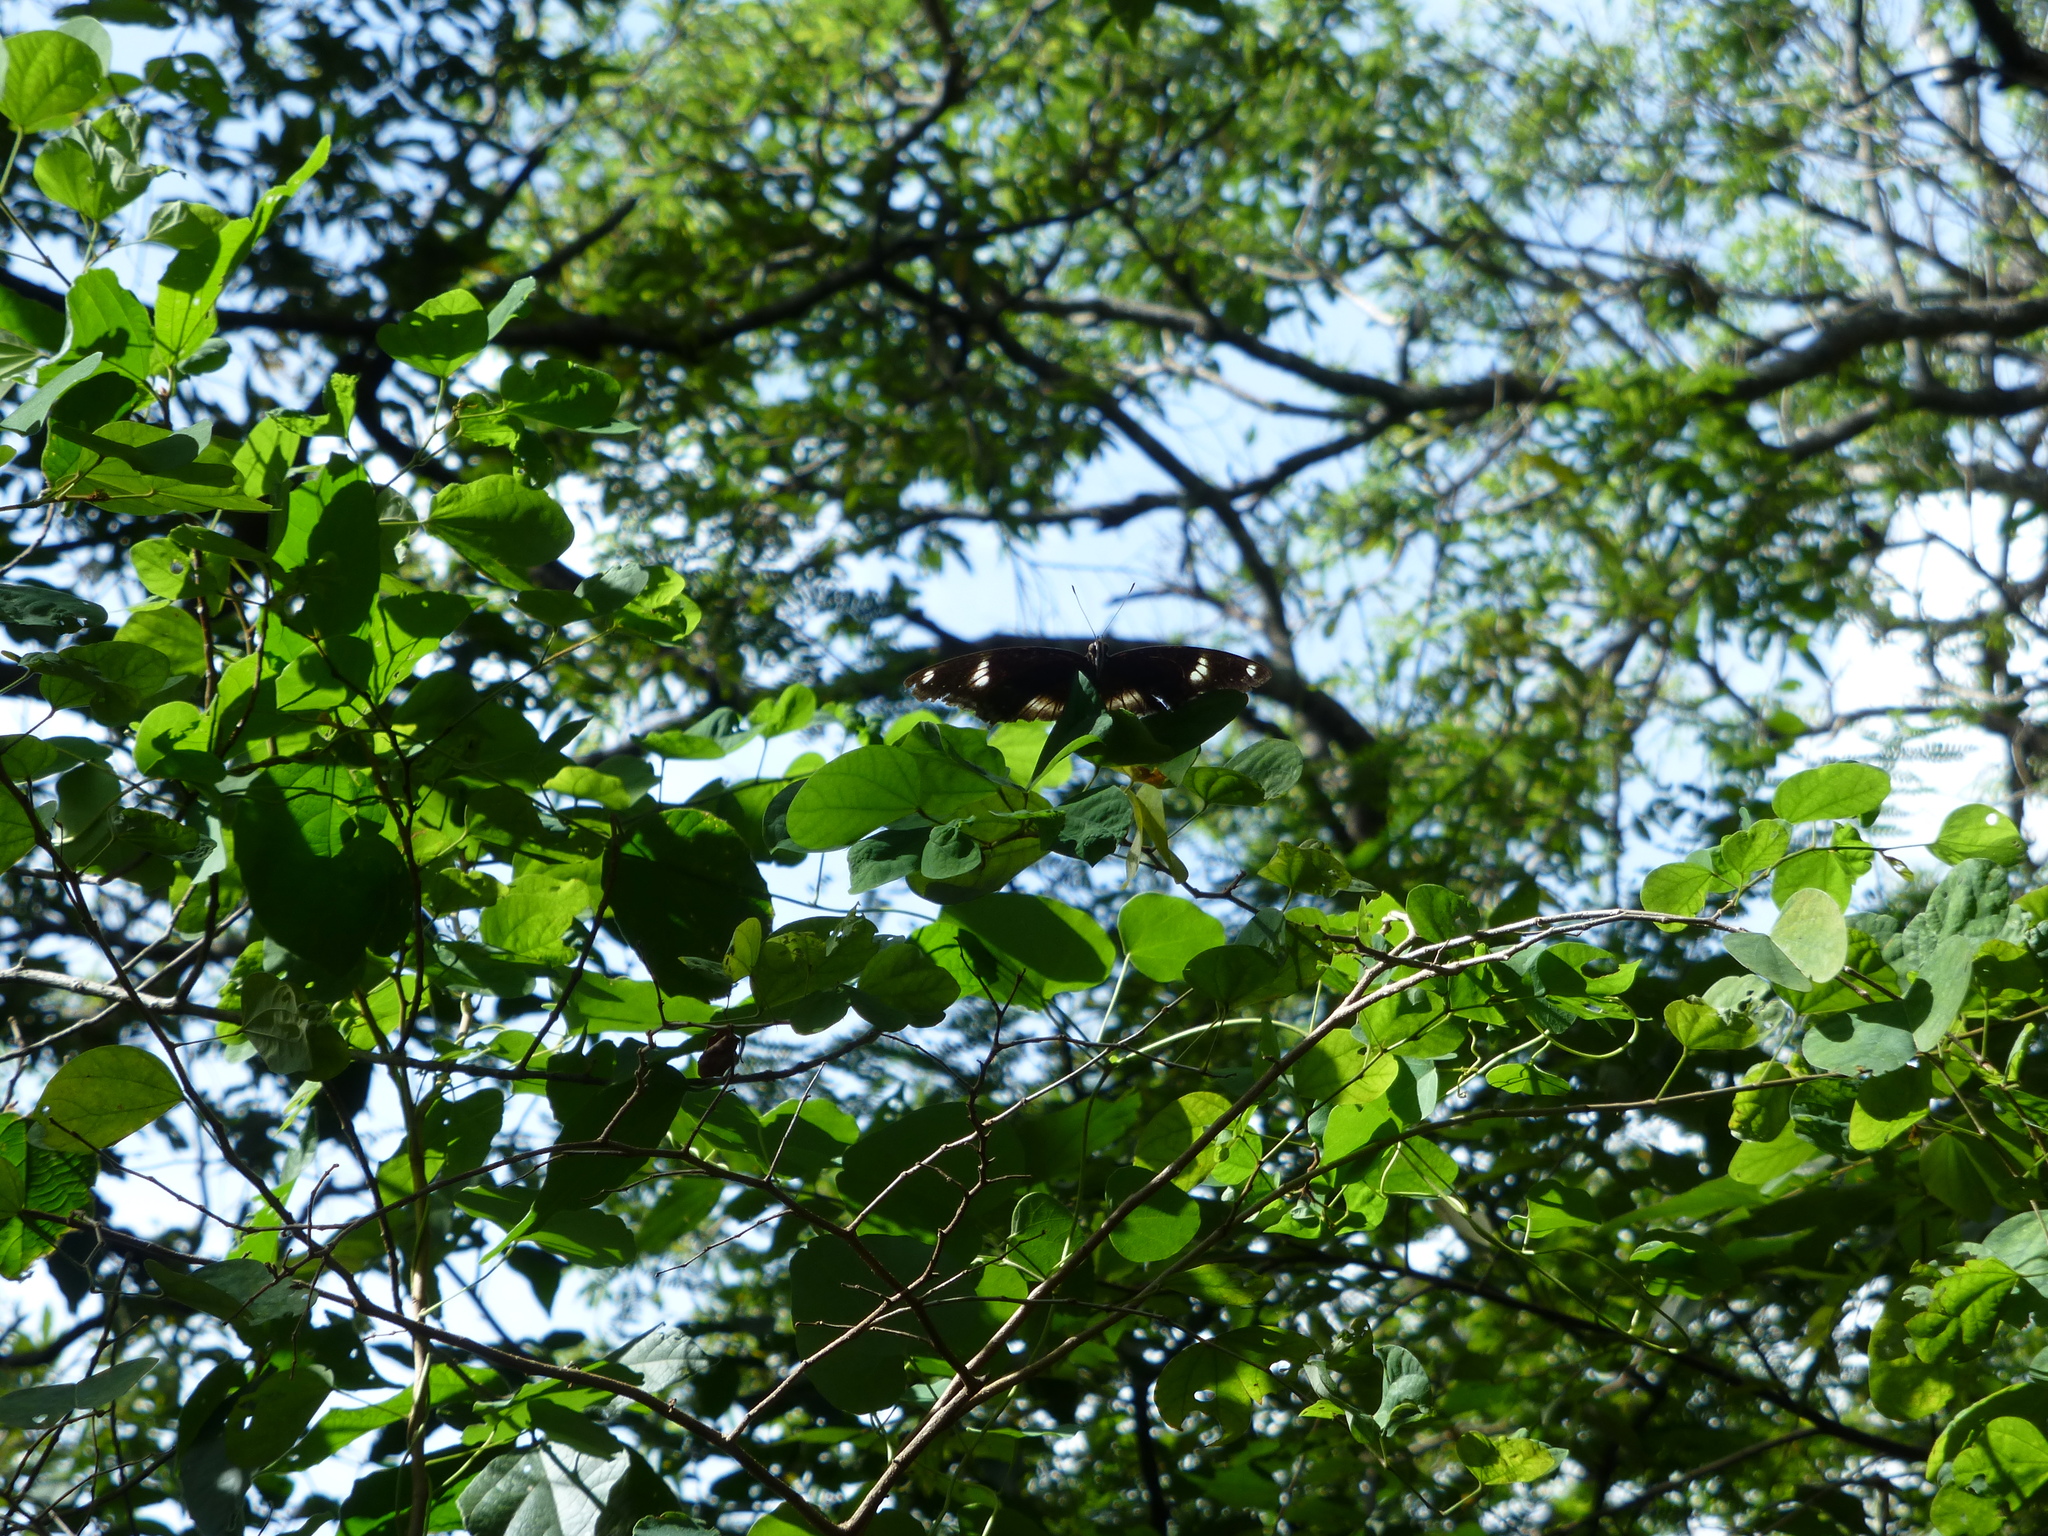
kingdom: Animalia
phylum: Arthropoda
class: Insecta
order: Lepidoptera
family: Nymphalidae
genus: Hypolimnas
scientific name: Hypolimnas bolina
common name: Great eggfly
